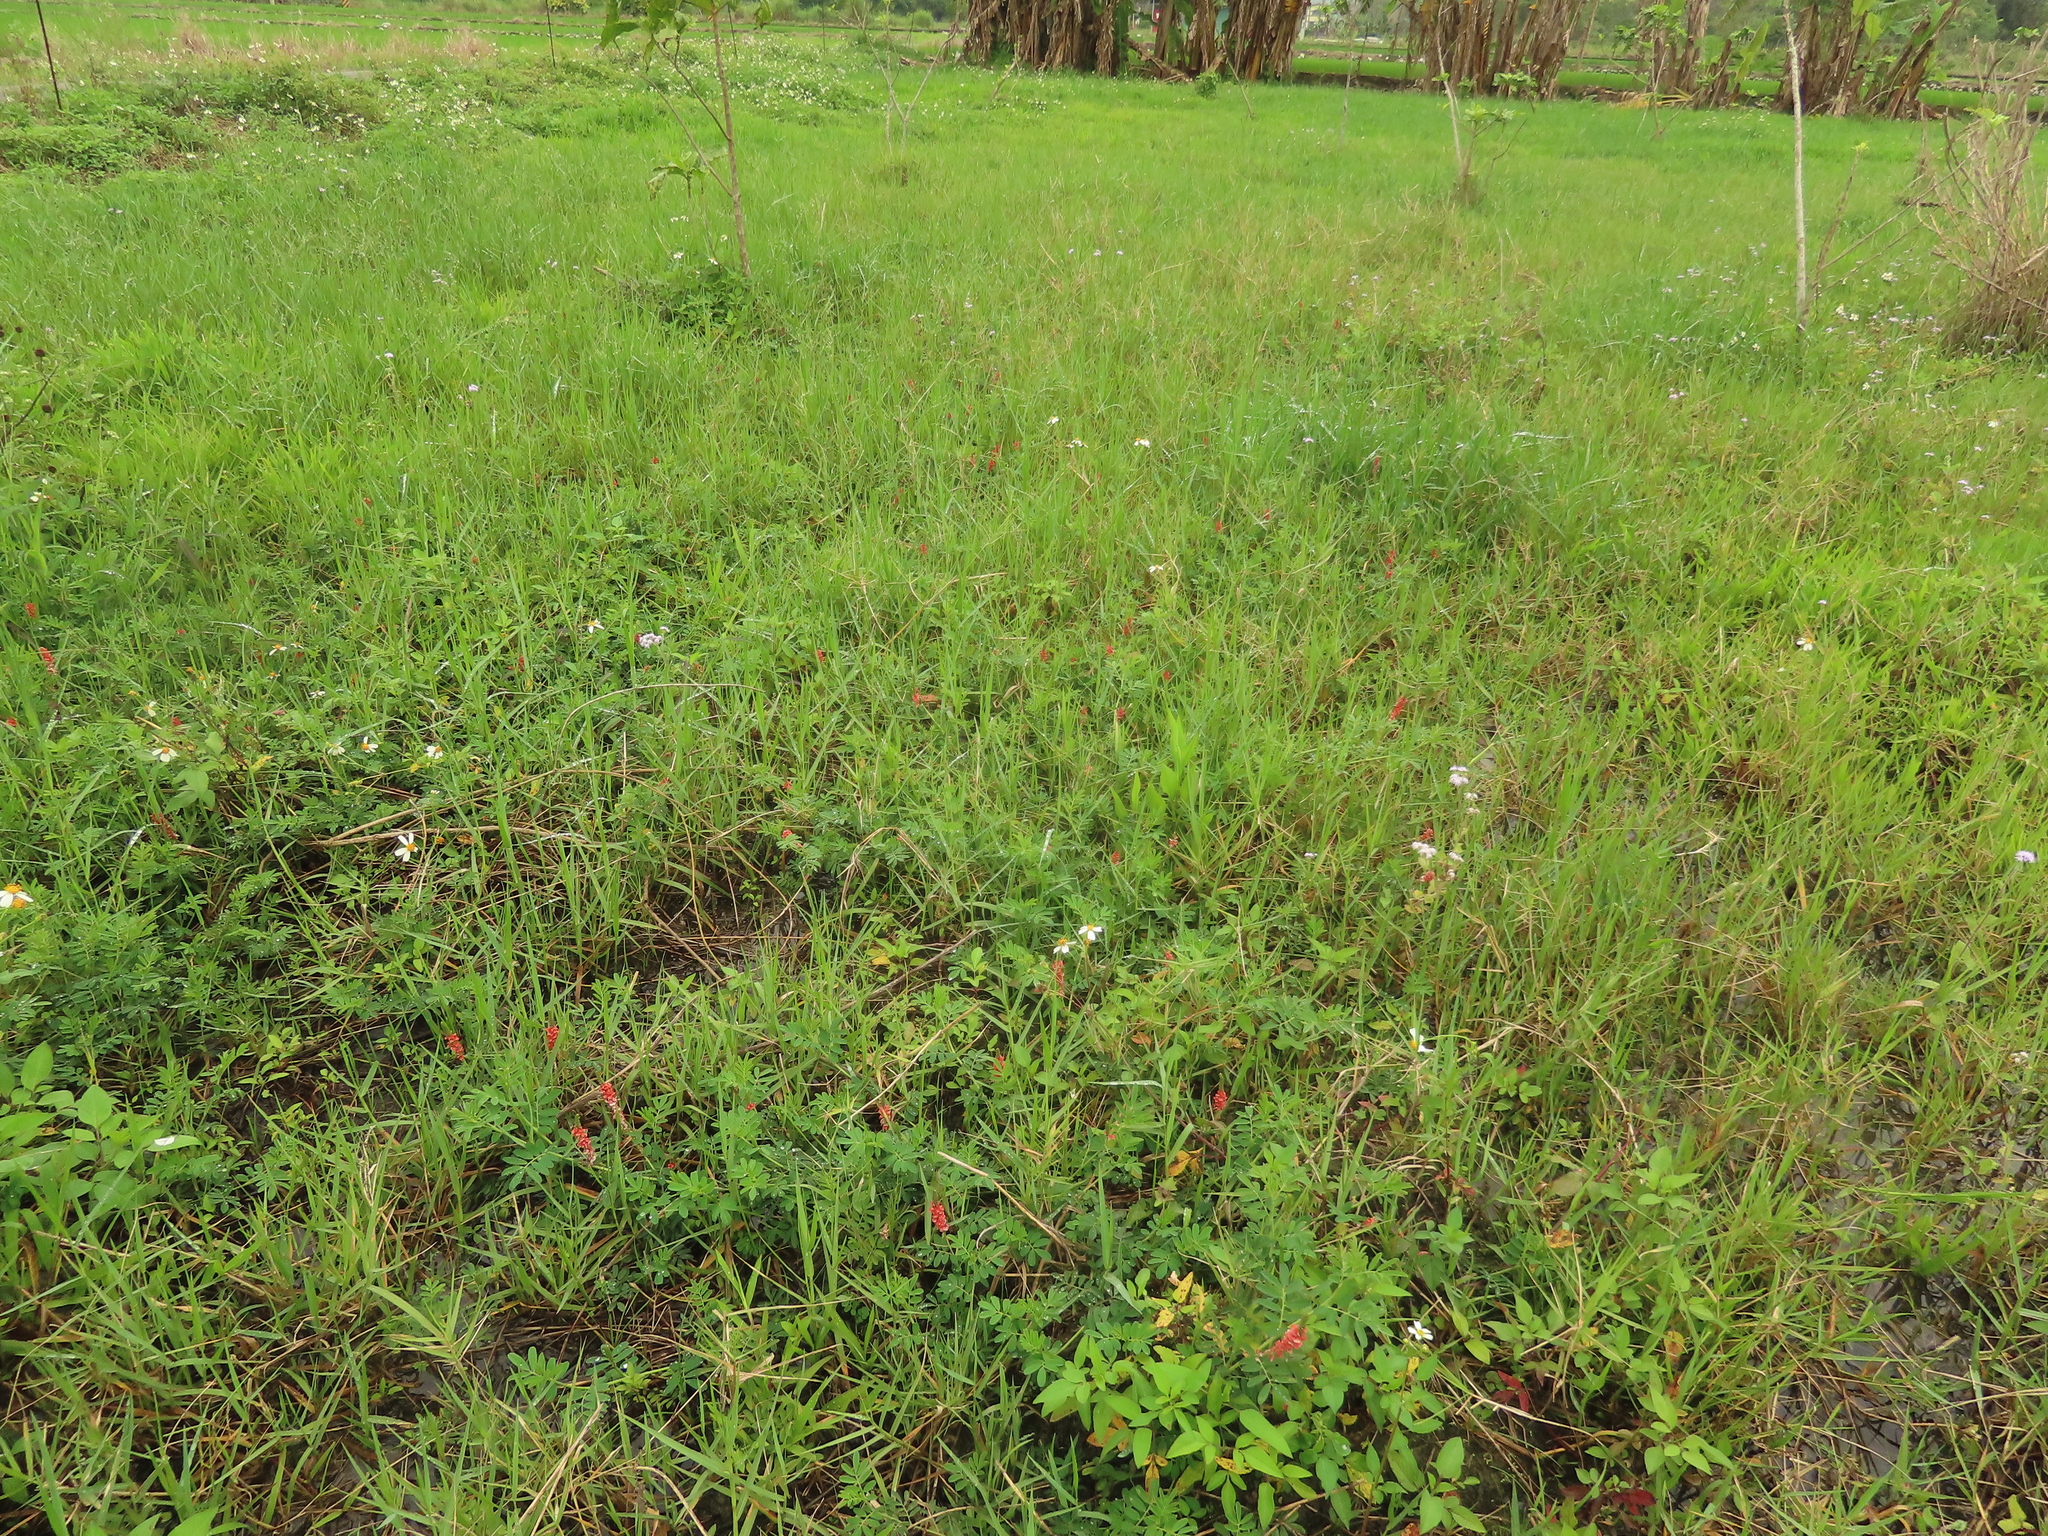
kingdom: Plantae
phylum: Tracheophyta
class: Magnoliopsida
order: Fabales
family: Fabaceae
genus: Indigofera
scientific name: Indigofera spicata
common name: Creeping indigo
